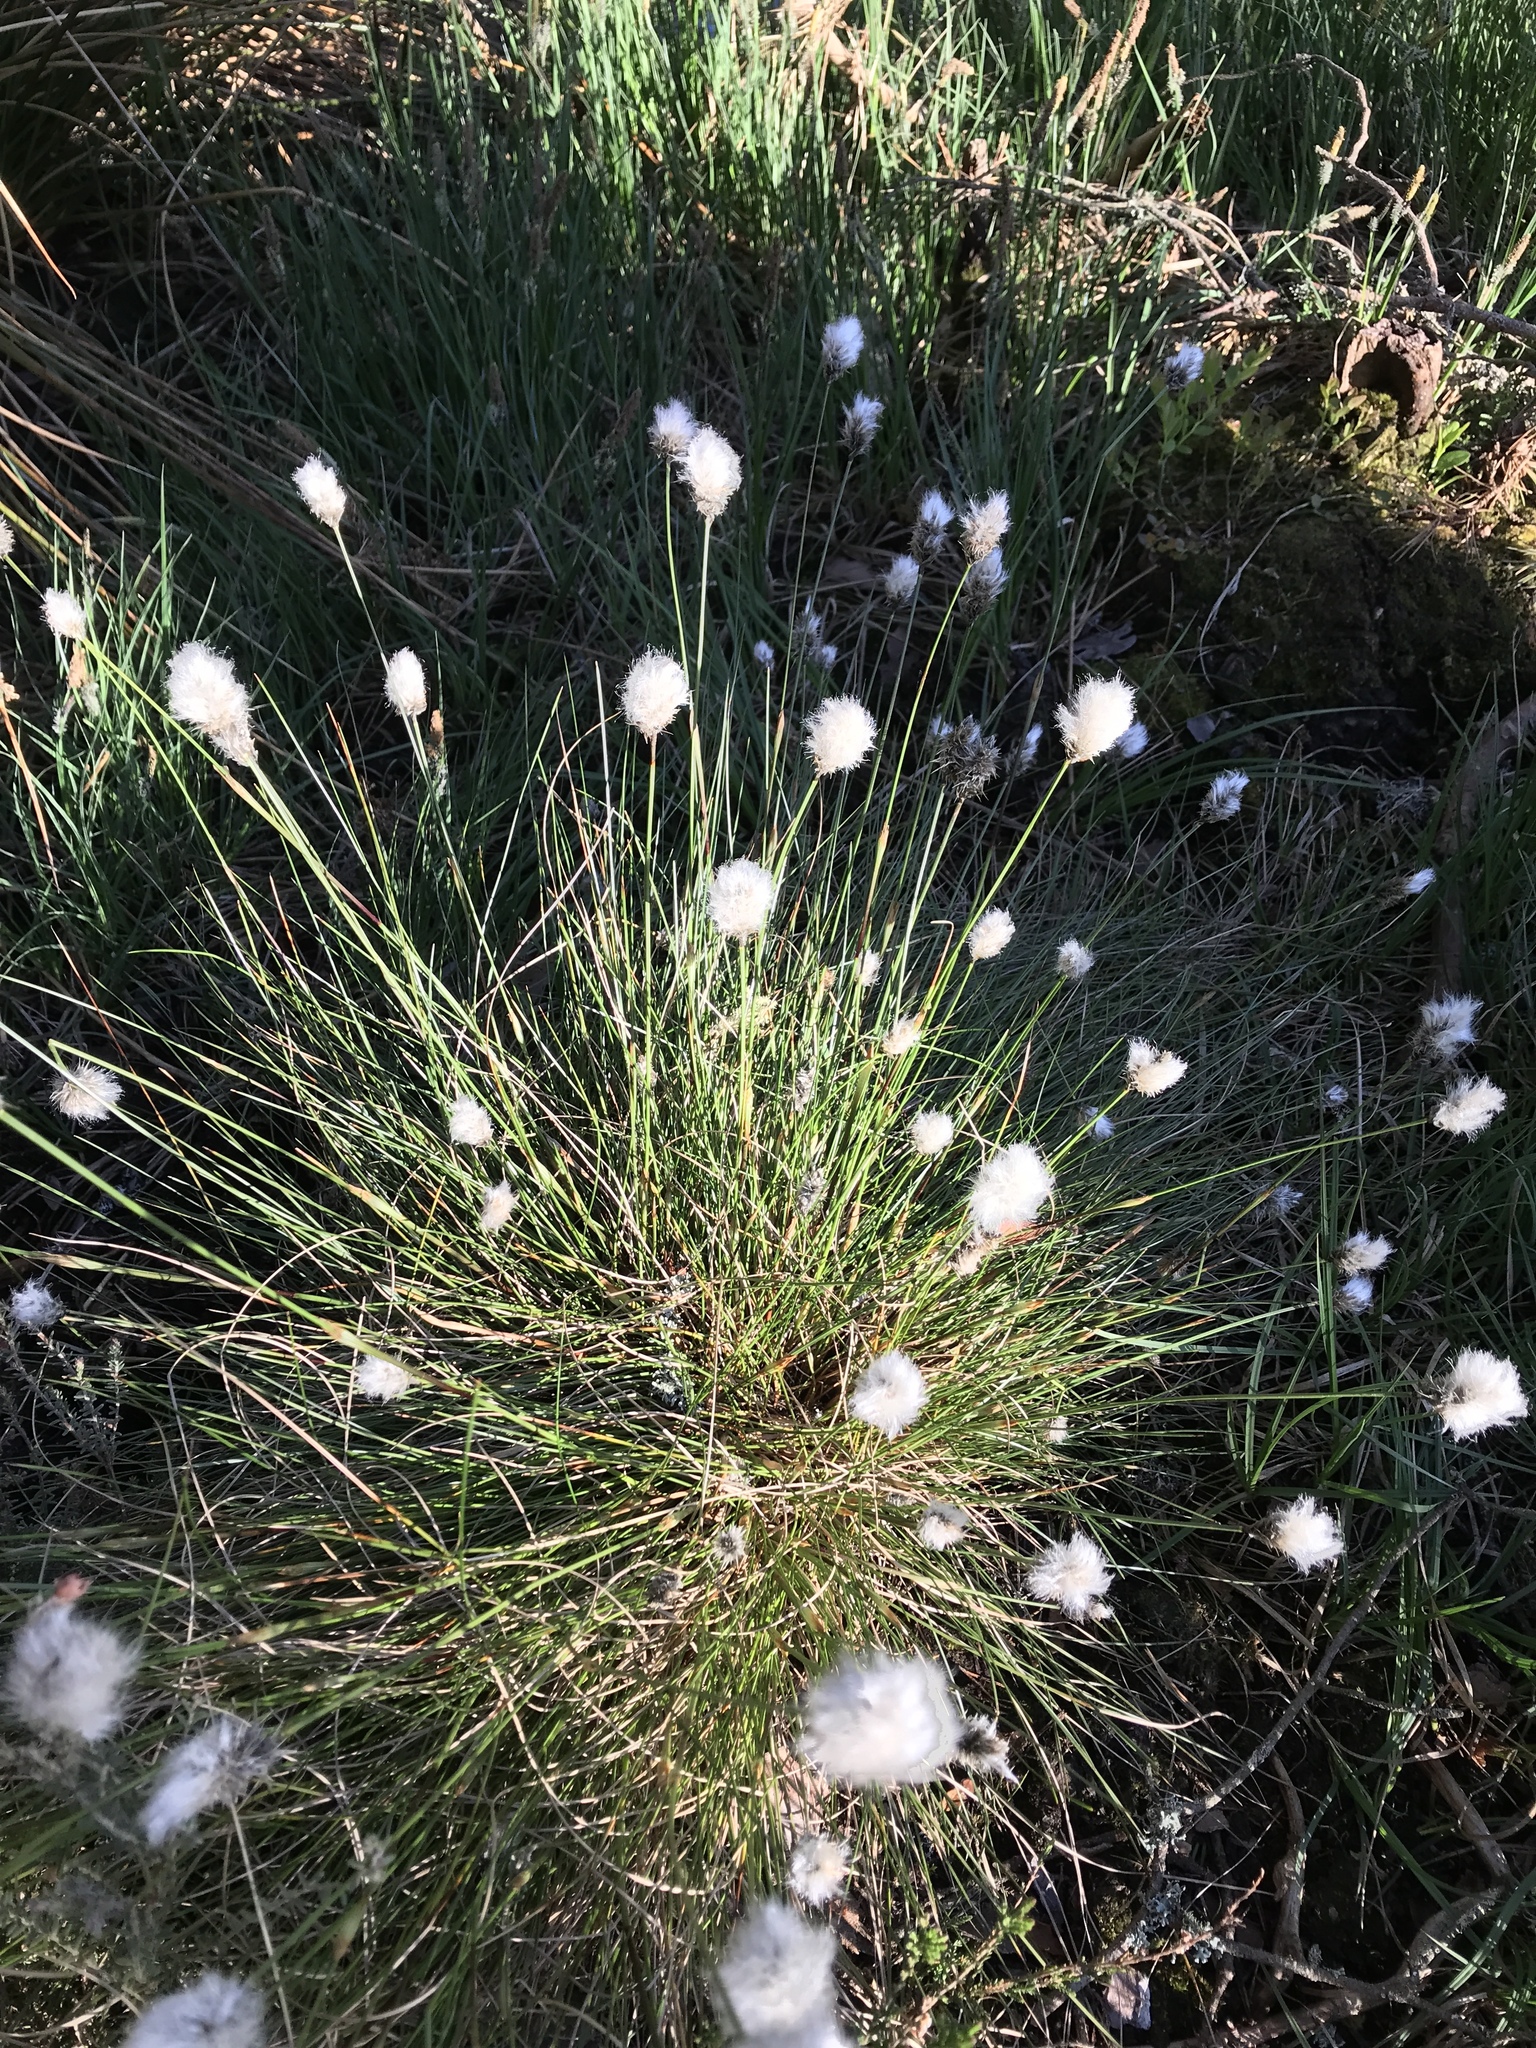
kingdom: Plantae
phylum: Tracheophyta
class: Liliopsida
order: Poales
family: Cyperaceae
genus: Eriophorum
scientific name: Eriophorum vaginatum
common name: Hare's-tail cottongrass
